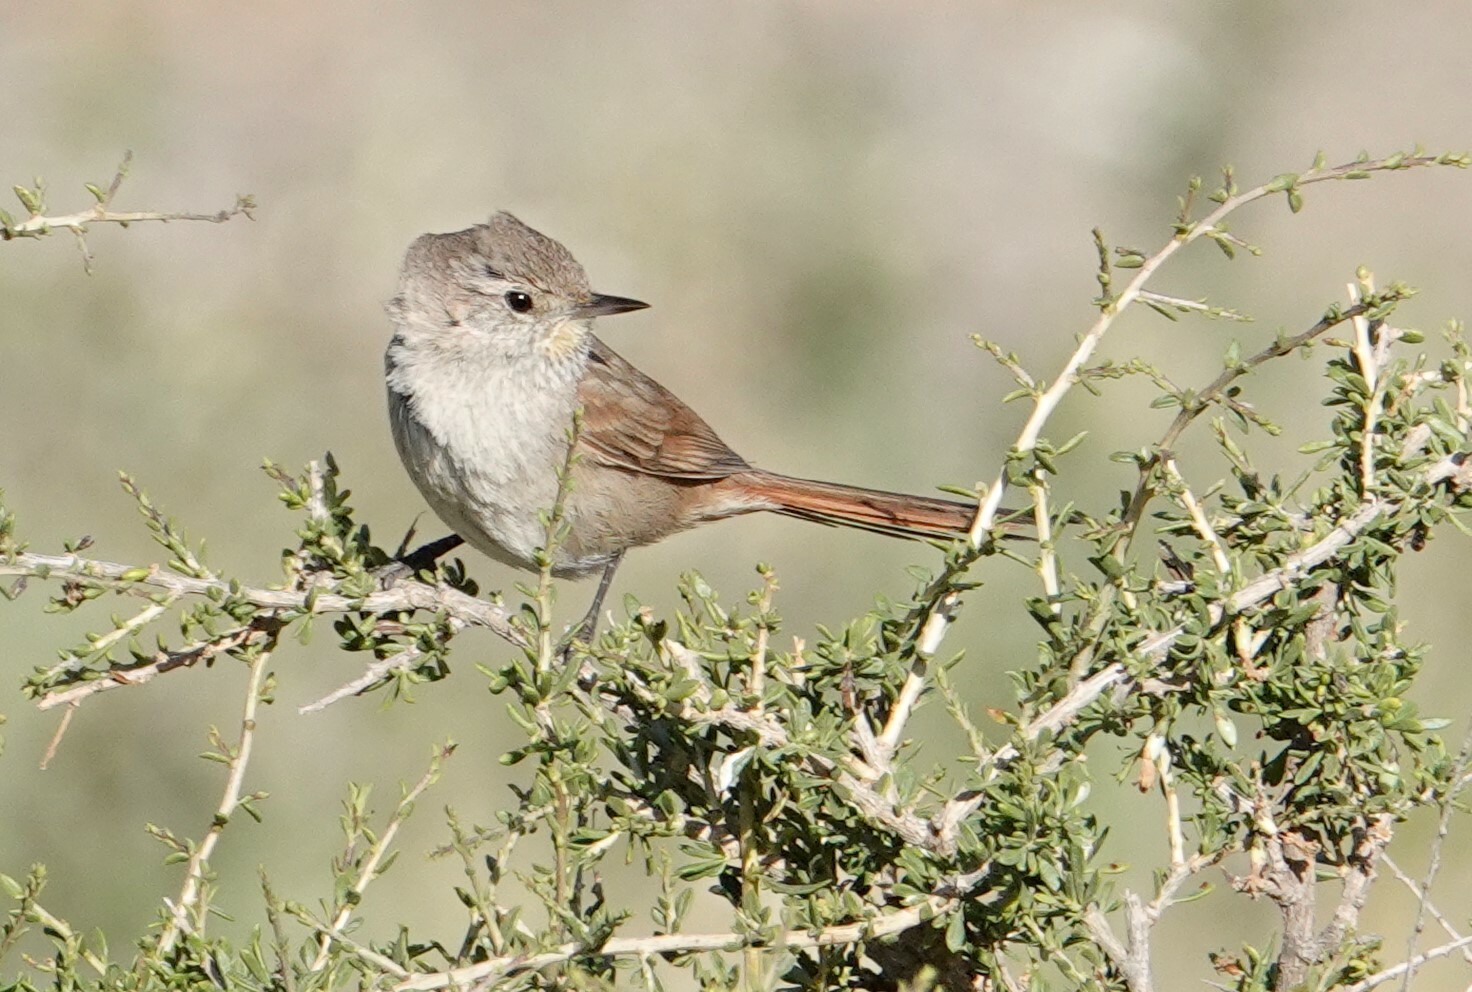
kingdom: Animalia
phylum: Chordata
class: Aves
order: Passeriformes
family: Furnariidae
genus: Asthenes
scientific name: Asthenes pyrrholeuca
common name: Sharp-billed canastero
